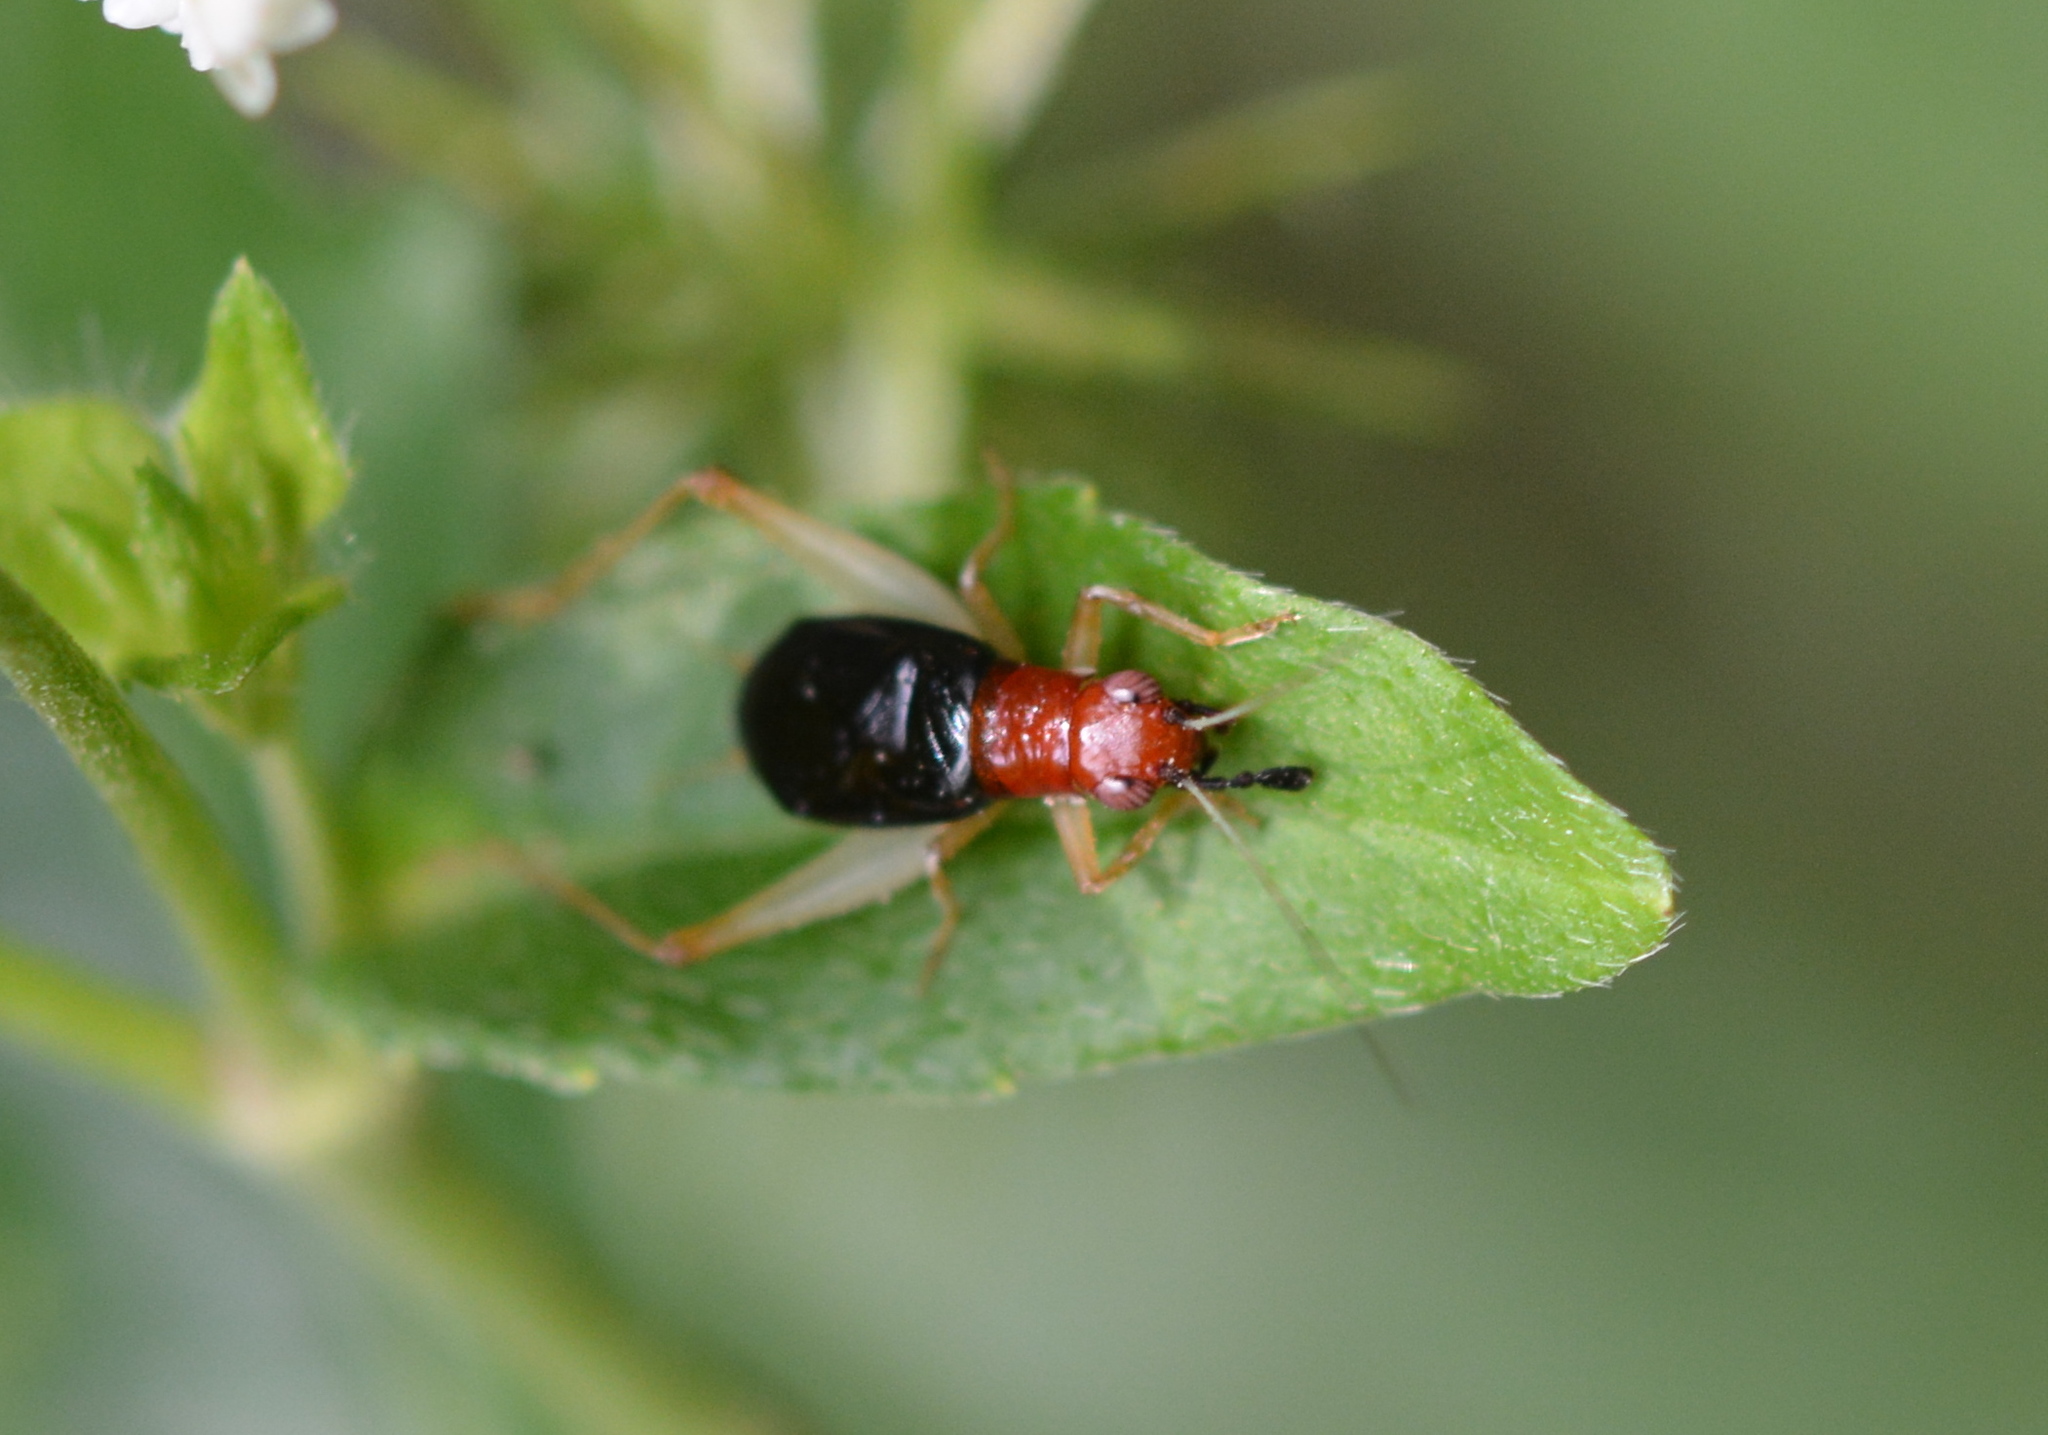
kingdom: Animalia
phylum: Arthropoda
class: Insecta
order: Orthoptera
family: Trigonidiidae
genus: Phyllopalpus
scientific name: Phyllopalpus pulchellus
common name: Handsome trig
